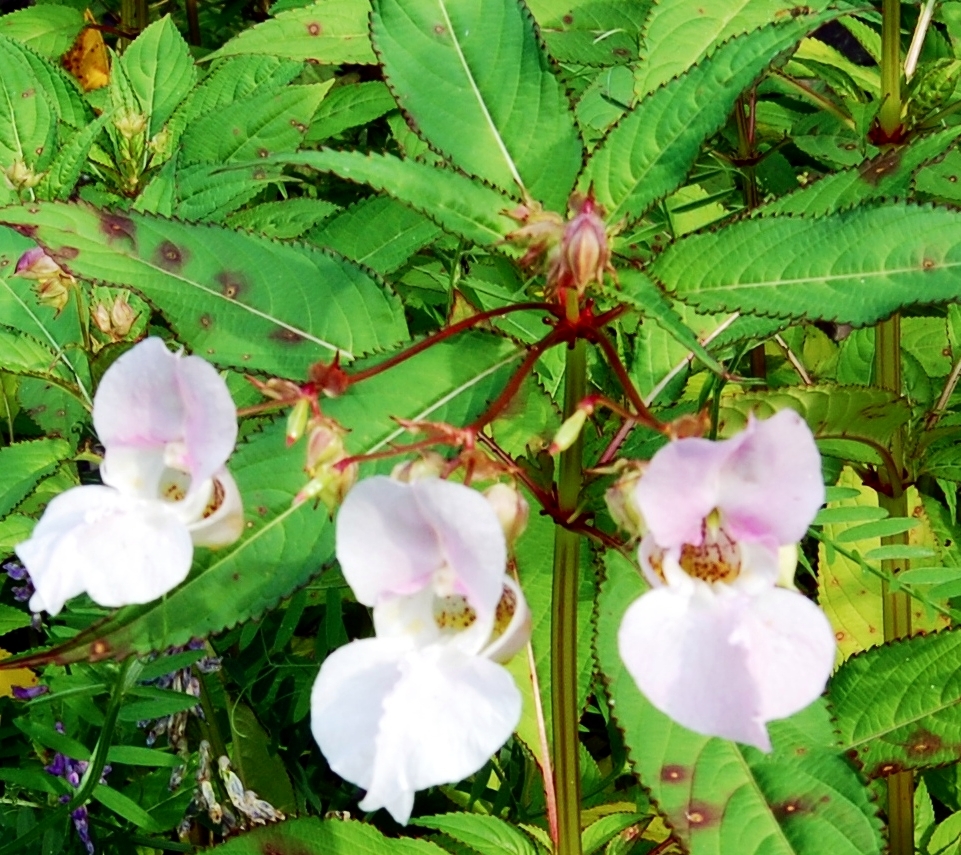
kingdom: Plantae
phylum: Tracheophyta
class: Magnoliopsida
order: Ericales
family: Balsaminaceae
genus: Impatiens
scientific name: Impatiens glandulifera
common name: Himalayan balsam
